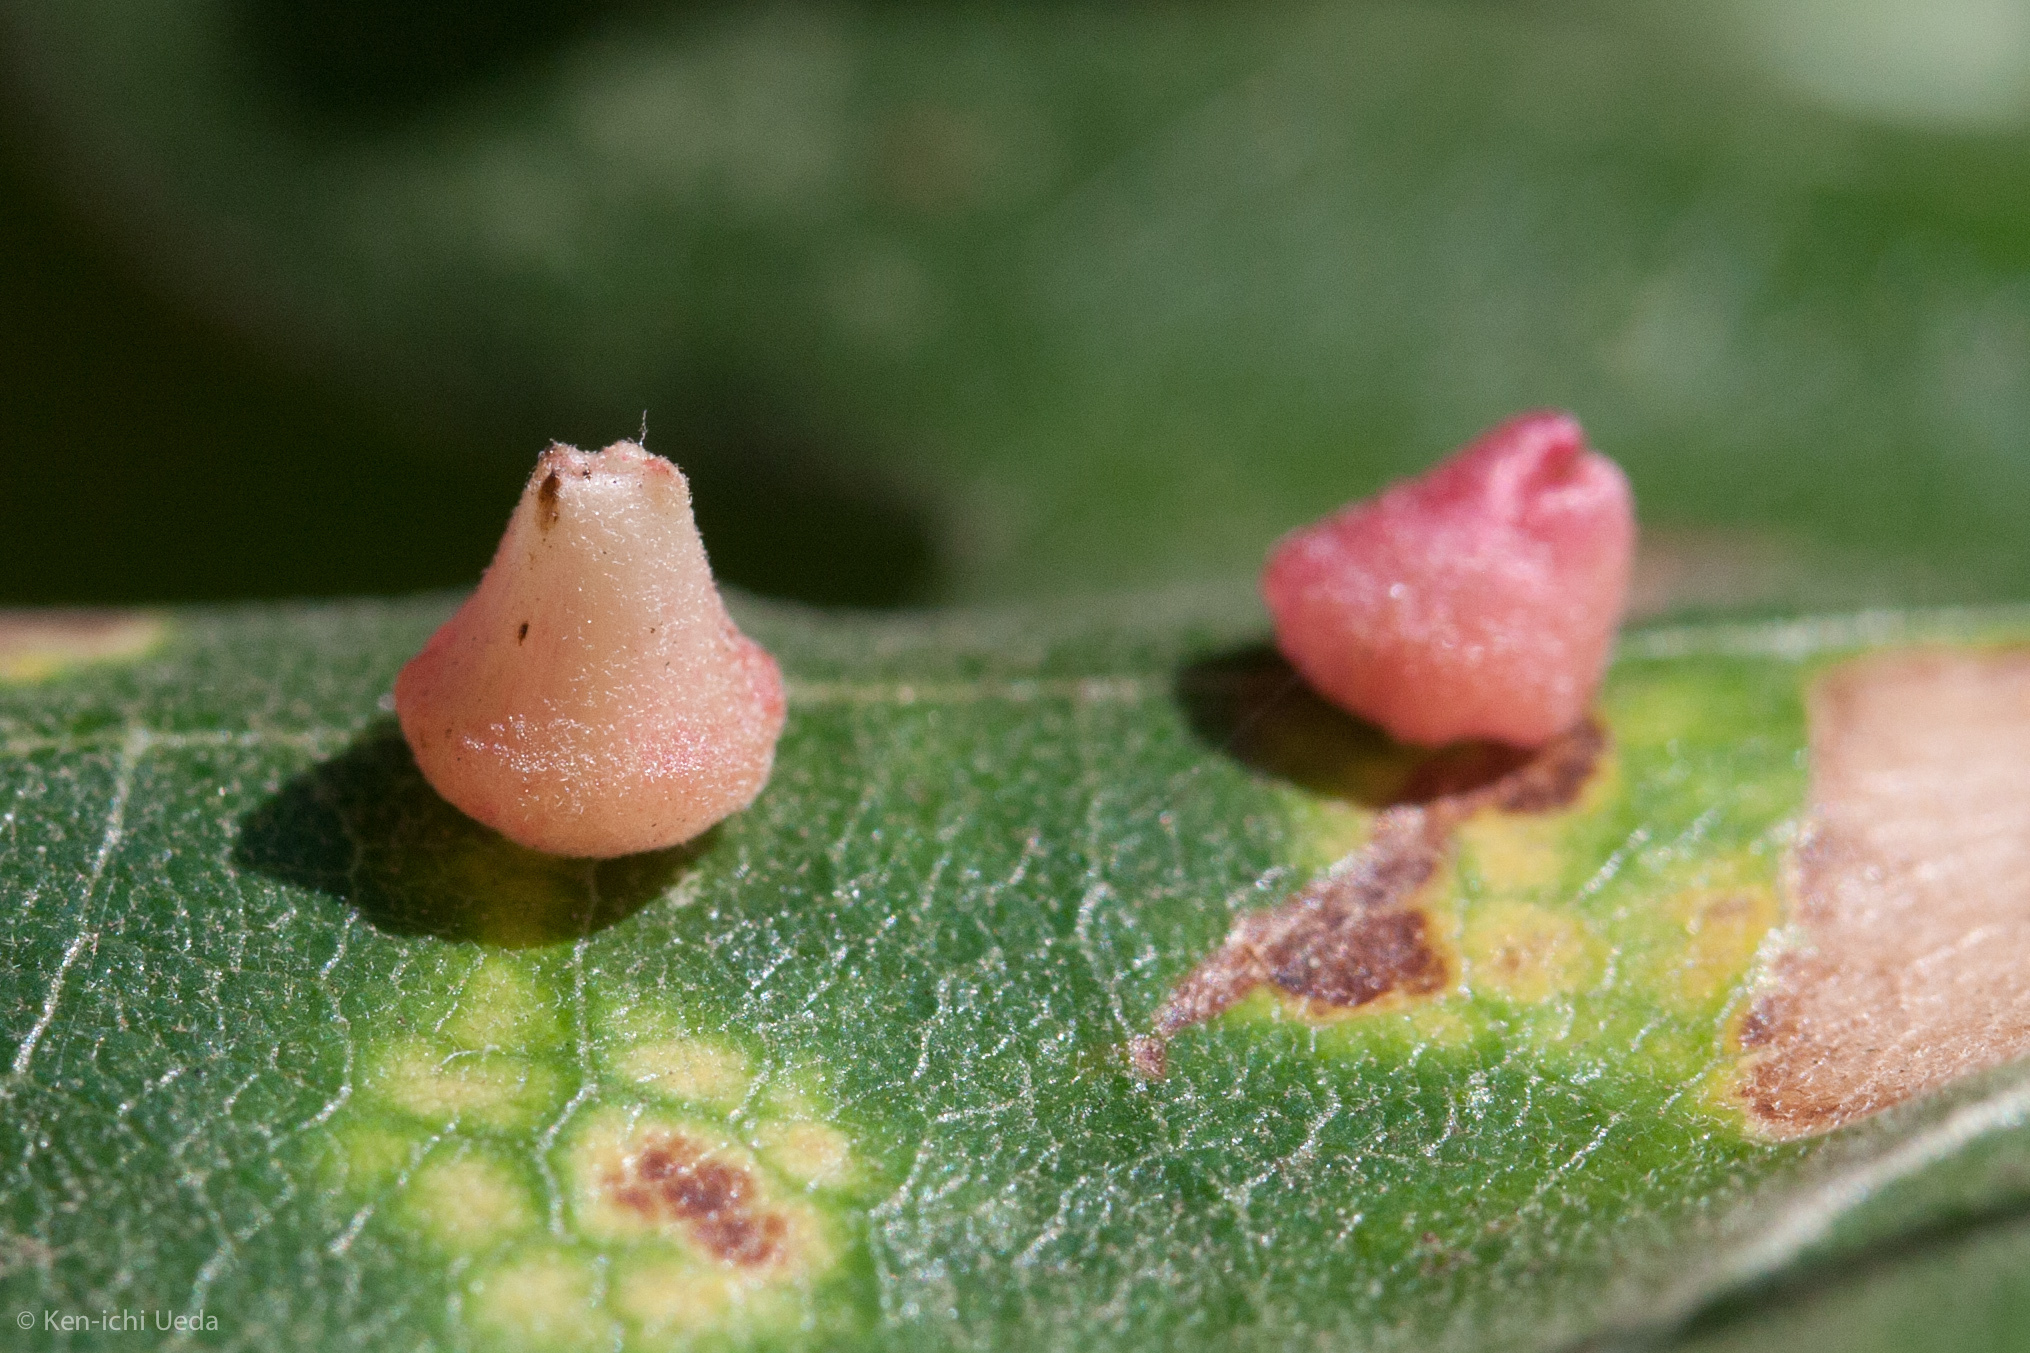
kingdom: Animalia
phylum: Arthropoda
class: Insecta
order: Hymenoptera
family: Cynipidae
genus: Andricus
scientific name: Andricus
